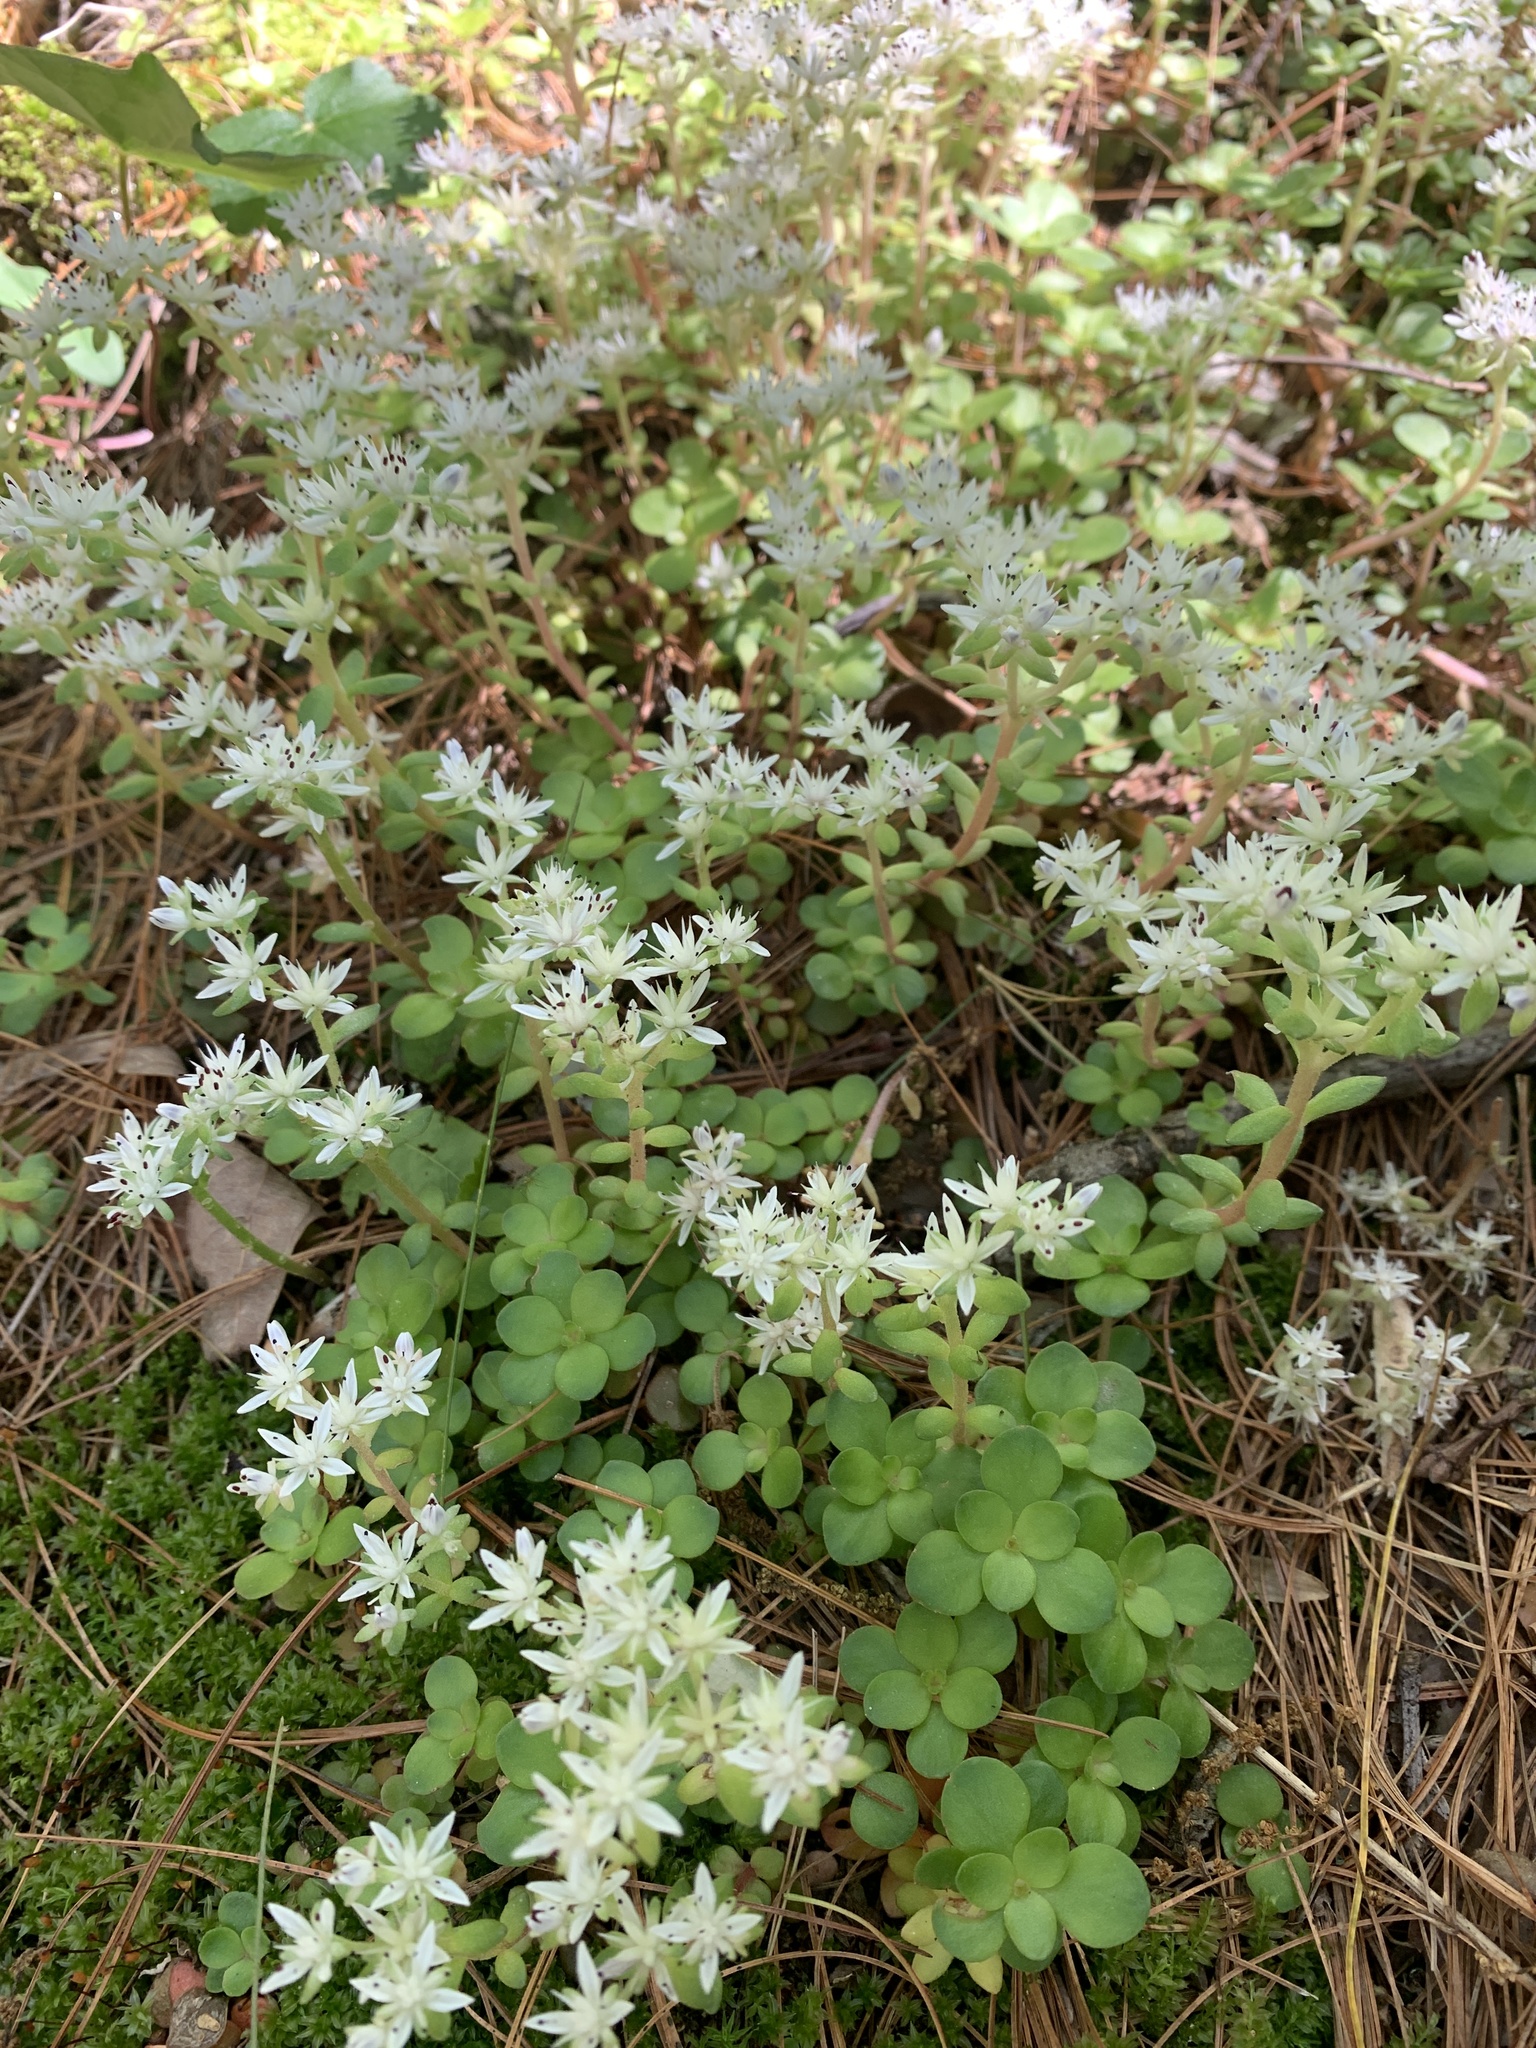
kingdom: Plantae
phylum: Tracheophyta
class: Magnoliopsida
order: Saxifragales
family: Crassulaceae
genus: Sedum
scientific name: Sedum ternatum
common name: Wild stonecrop
